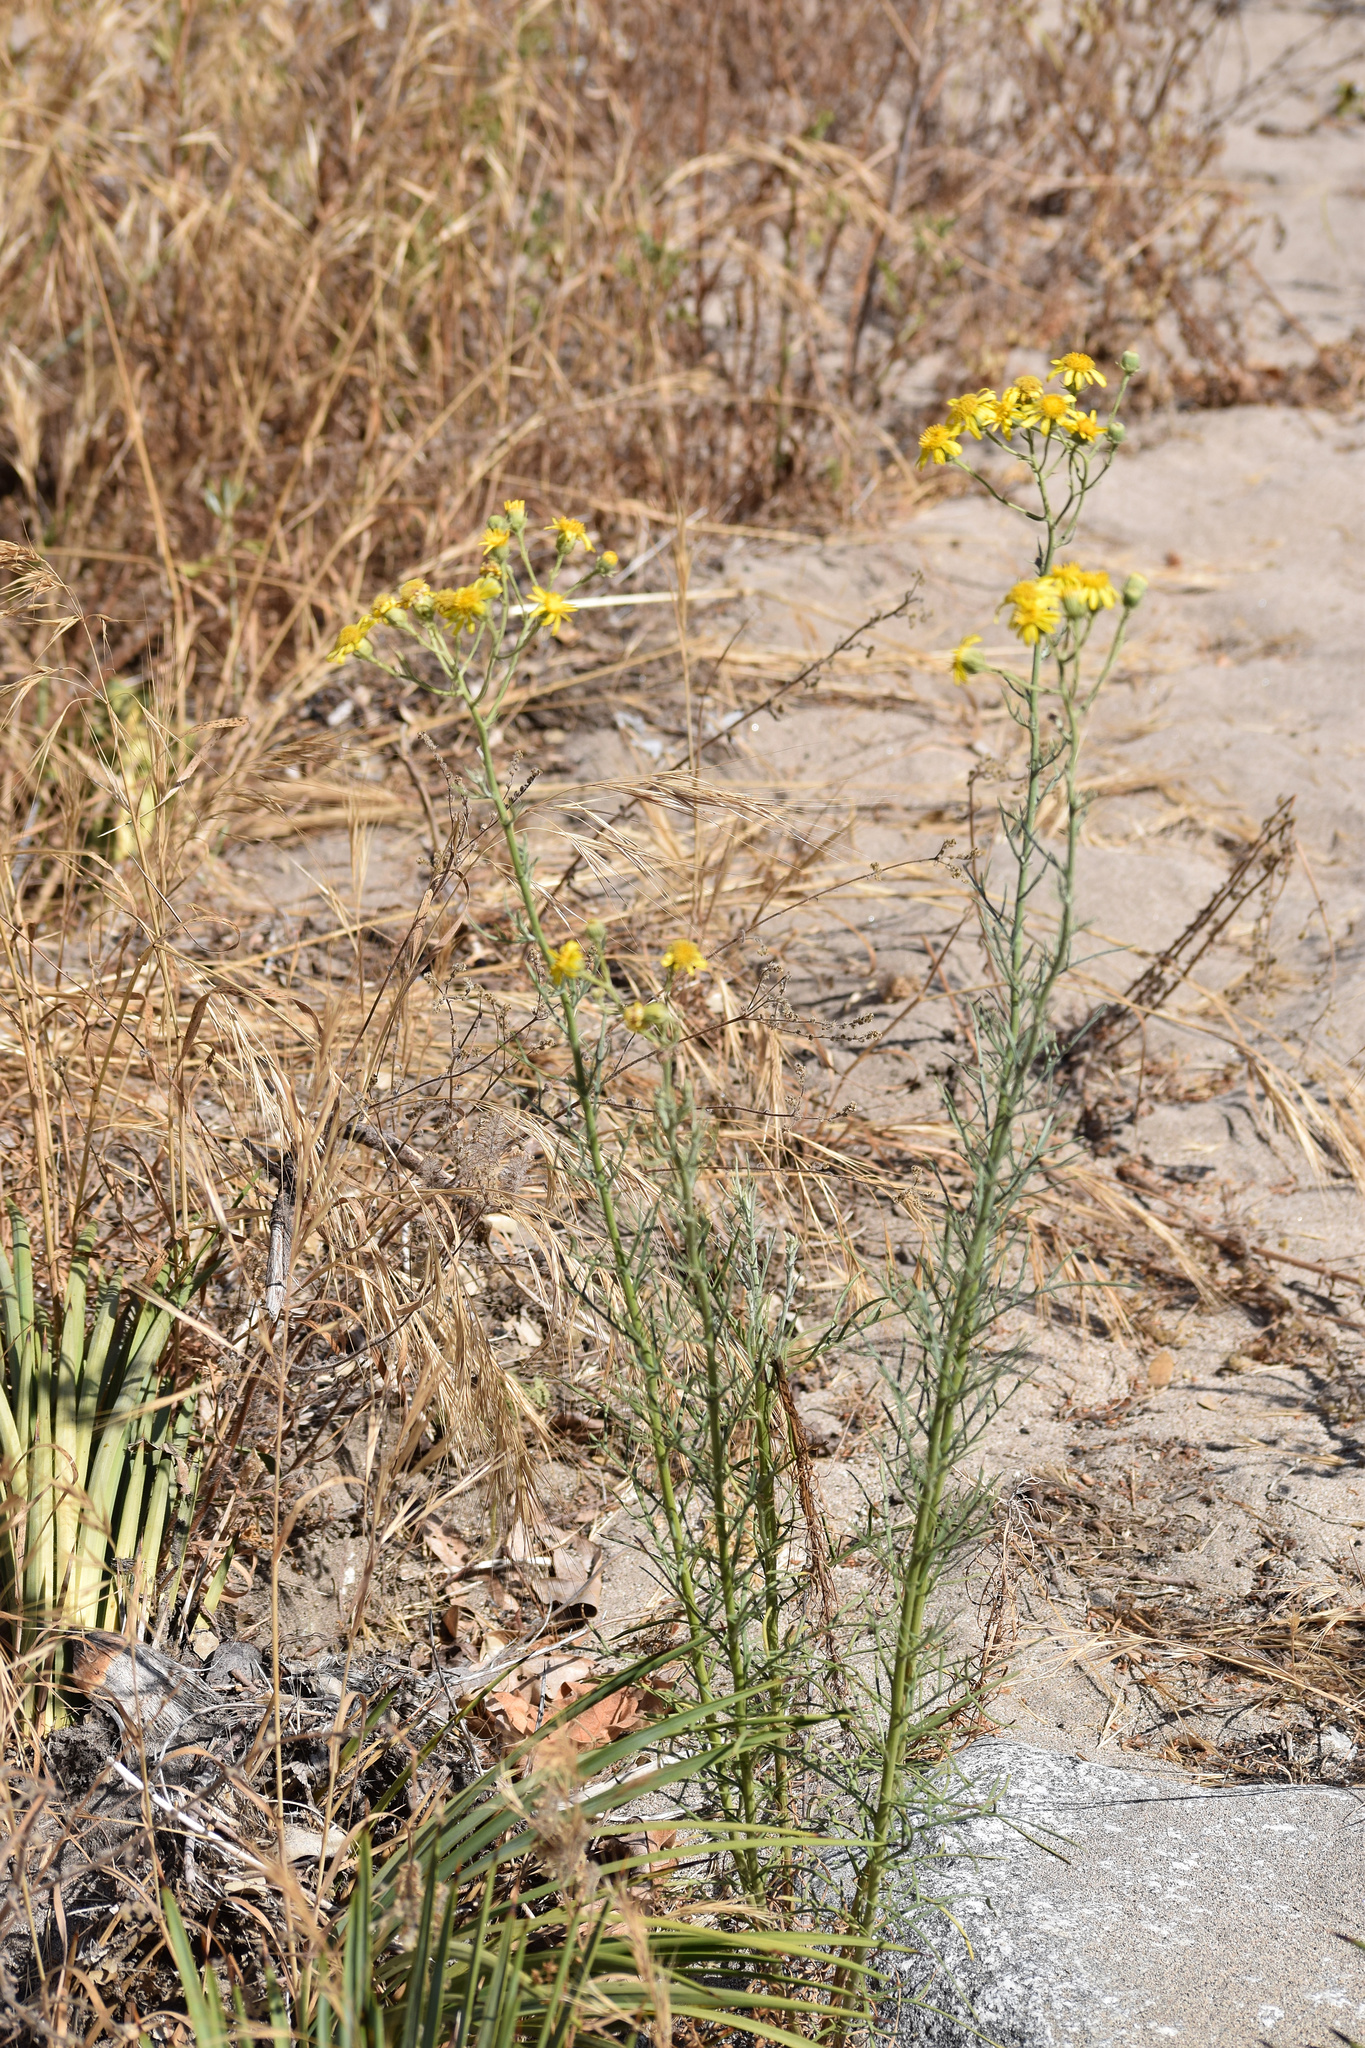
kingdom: Plantae
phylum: Tracheophyta
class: Magnoliopsida
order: Asterales
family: Asteraceae
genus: Senecio
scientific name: Senecio flaccidus
